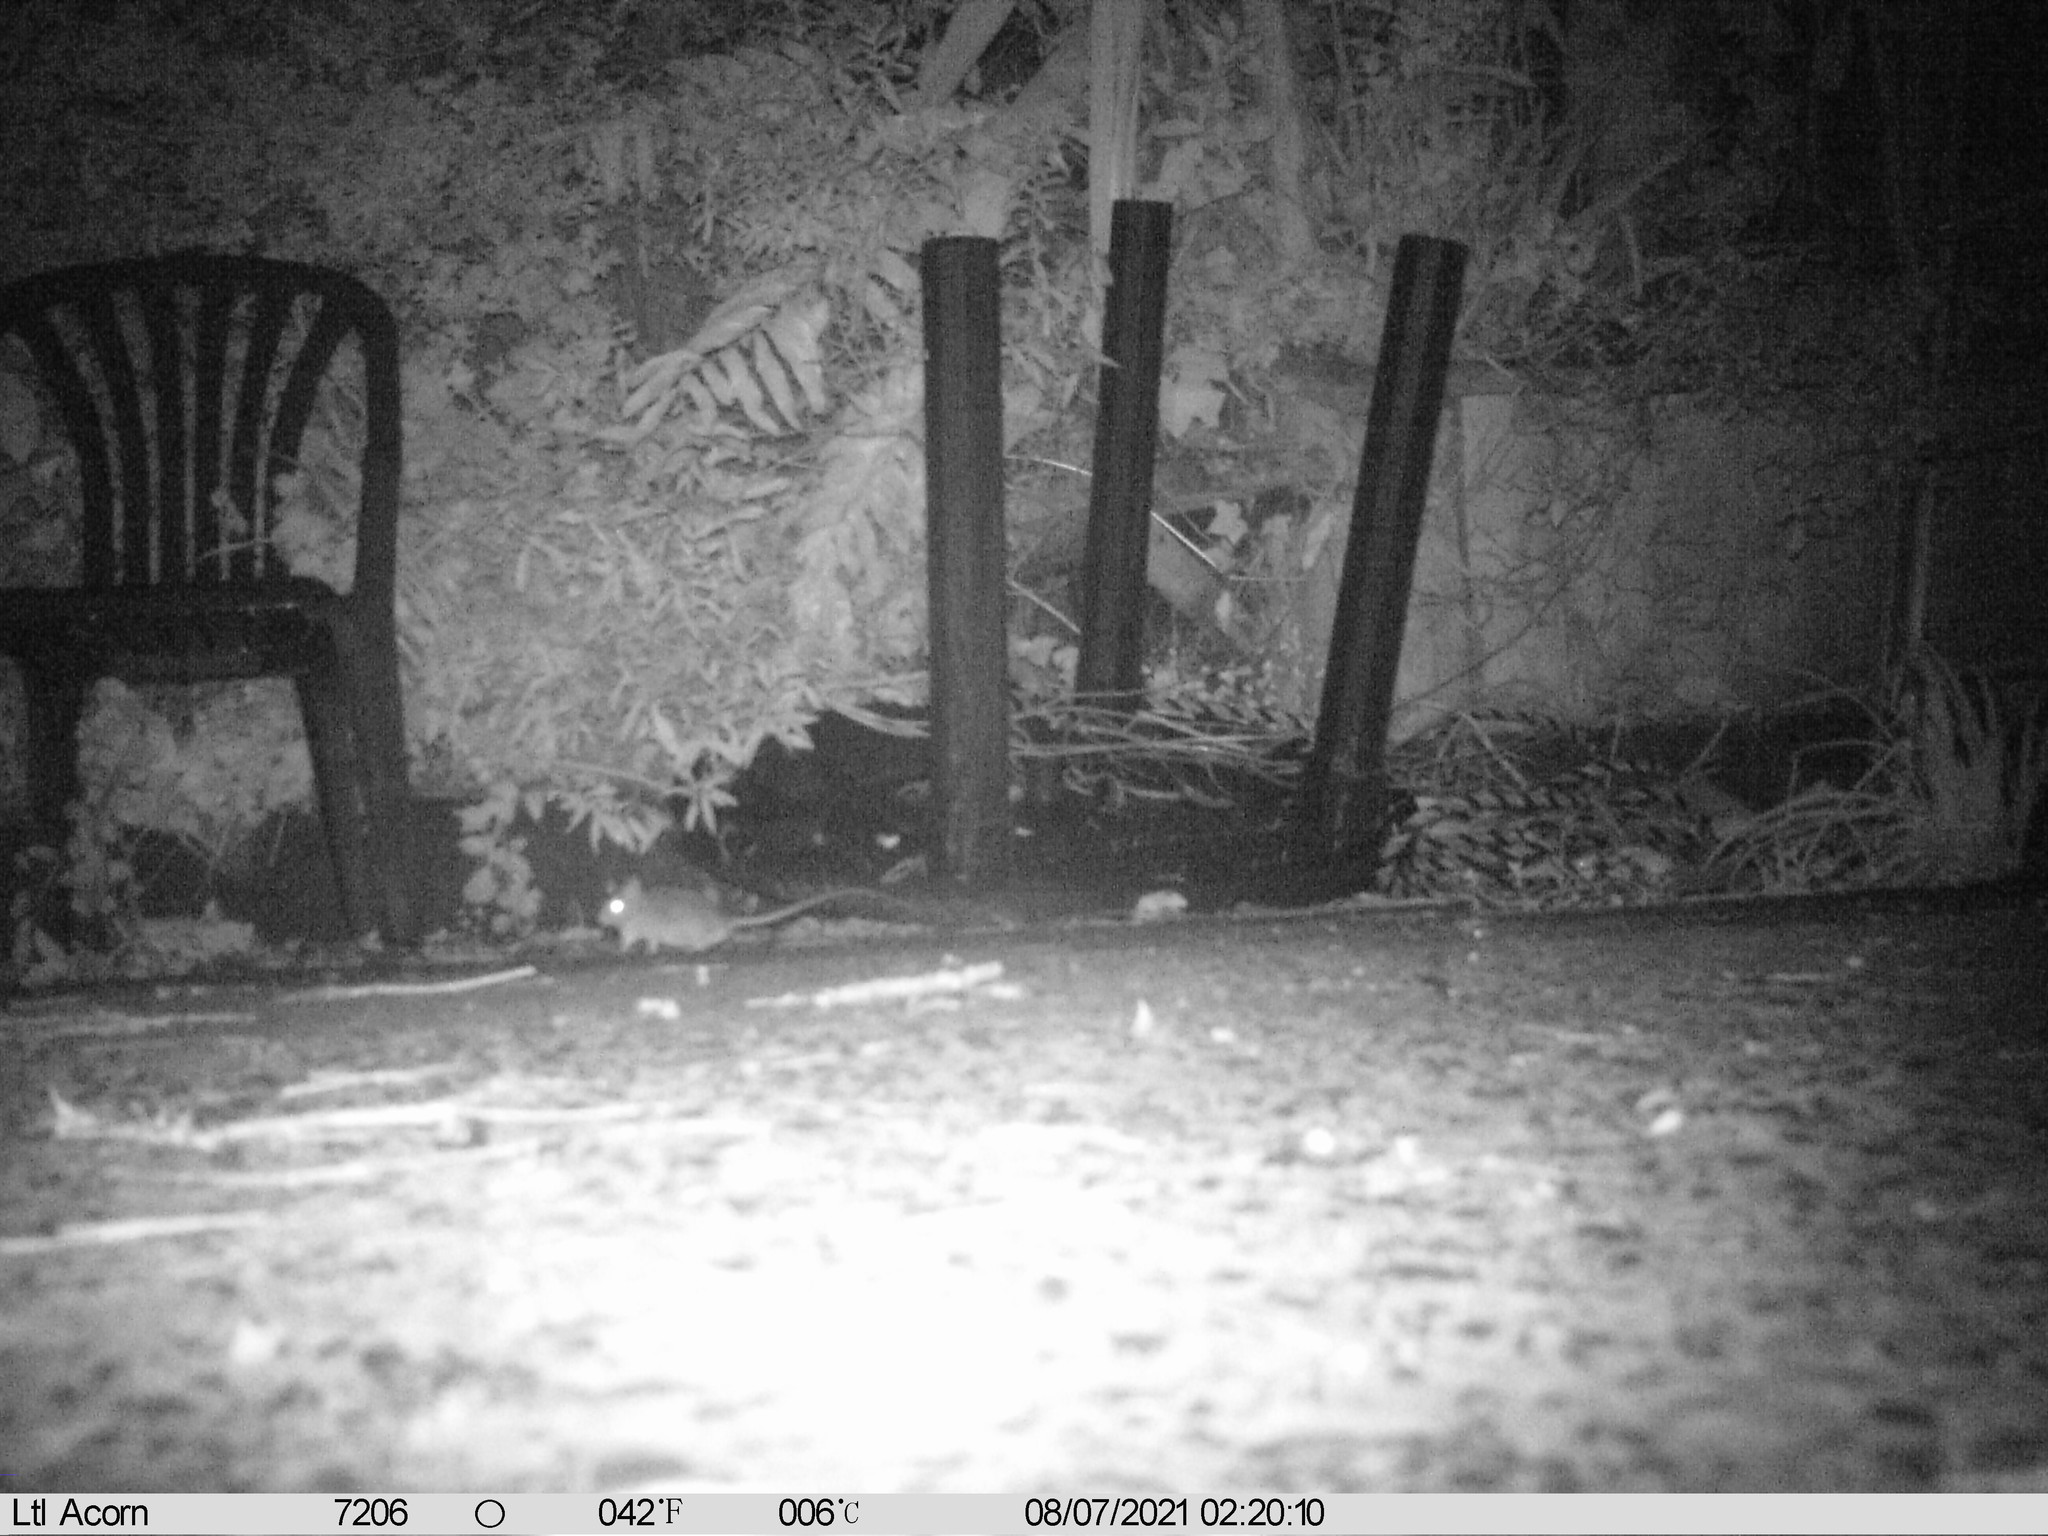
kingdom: Animalia
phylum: Chordata
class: Mammalia
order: Rodentia
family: Muridae
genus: Rattus
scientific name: Rattus rattus
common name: Black rat
